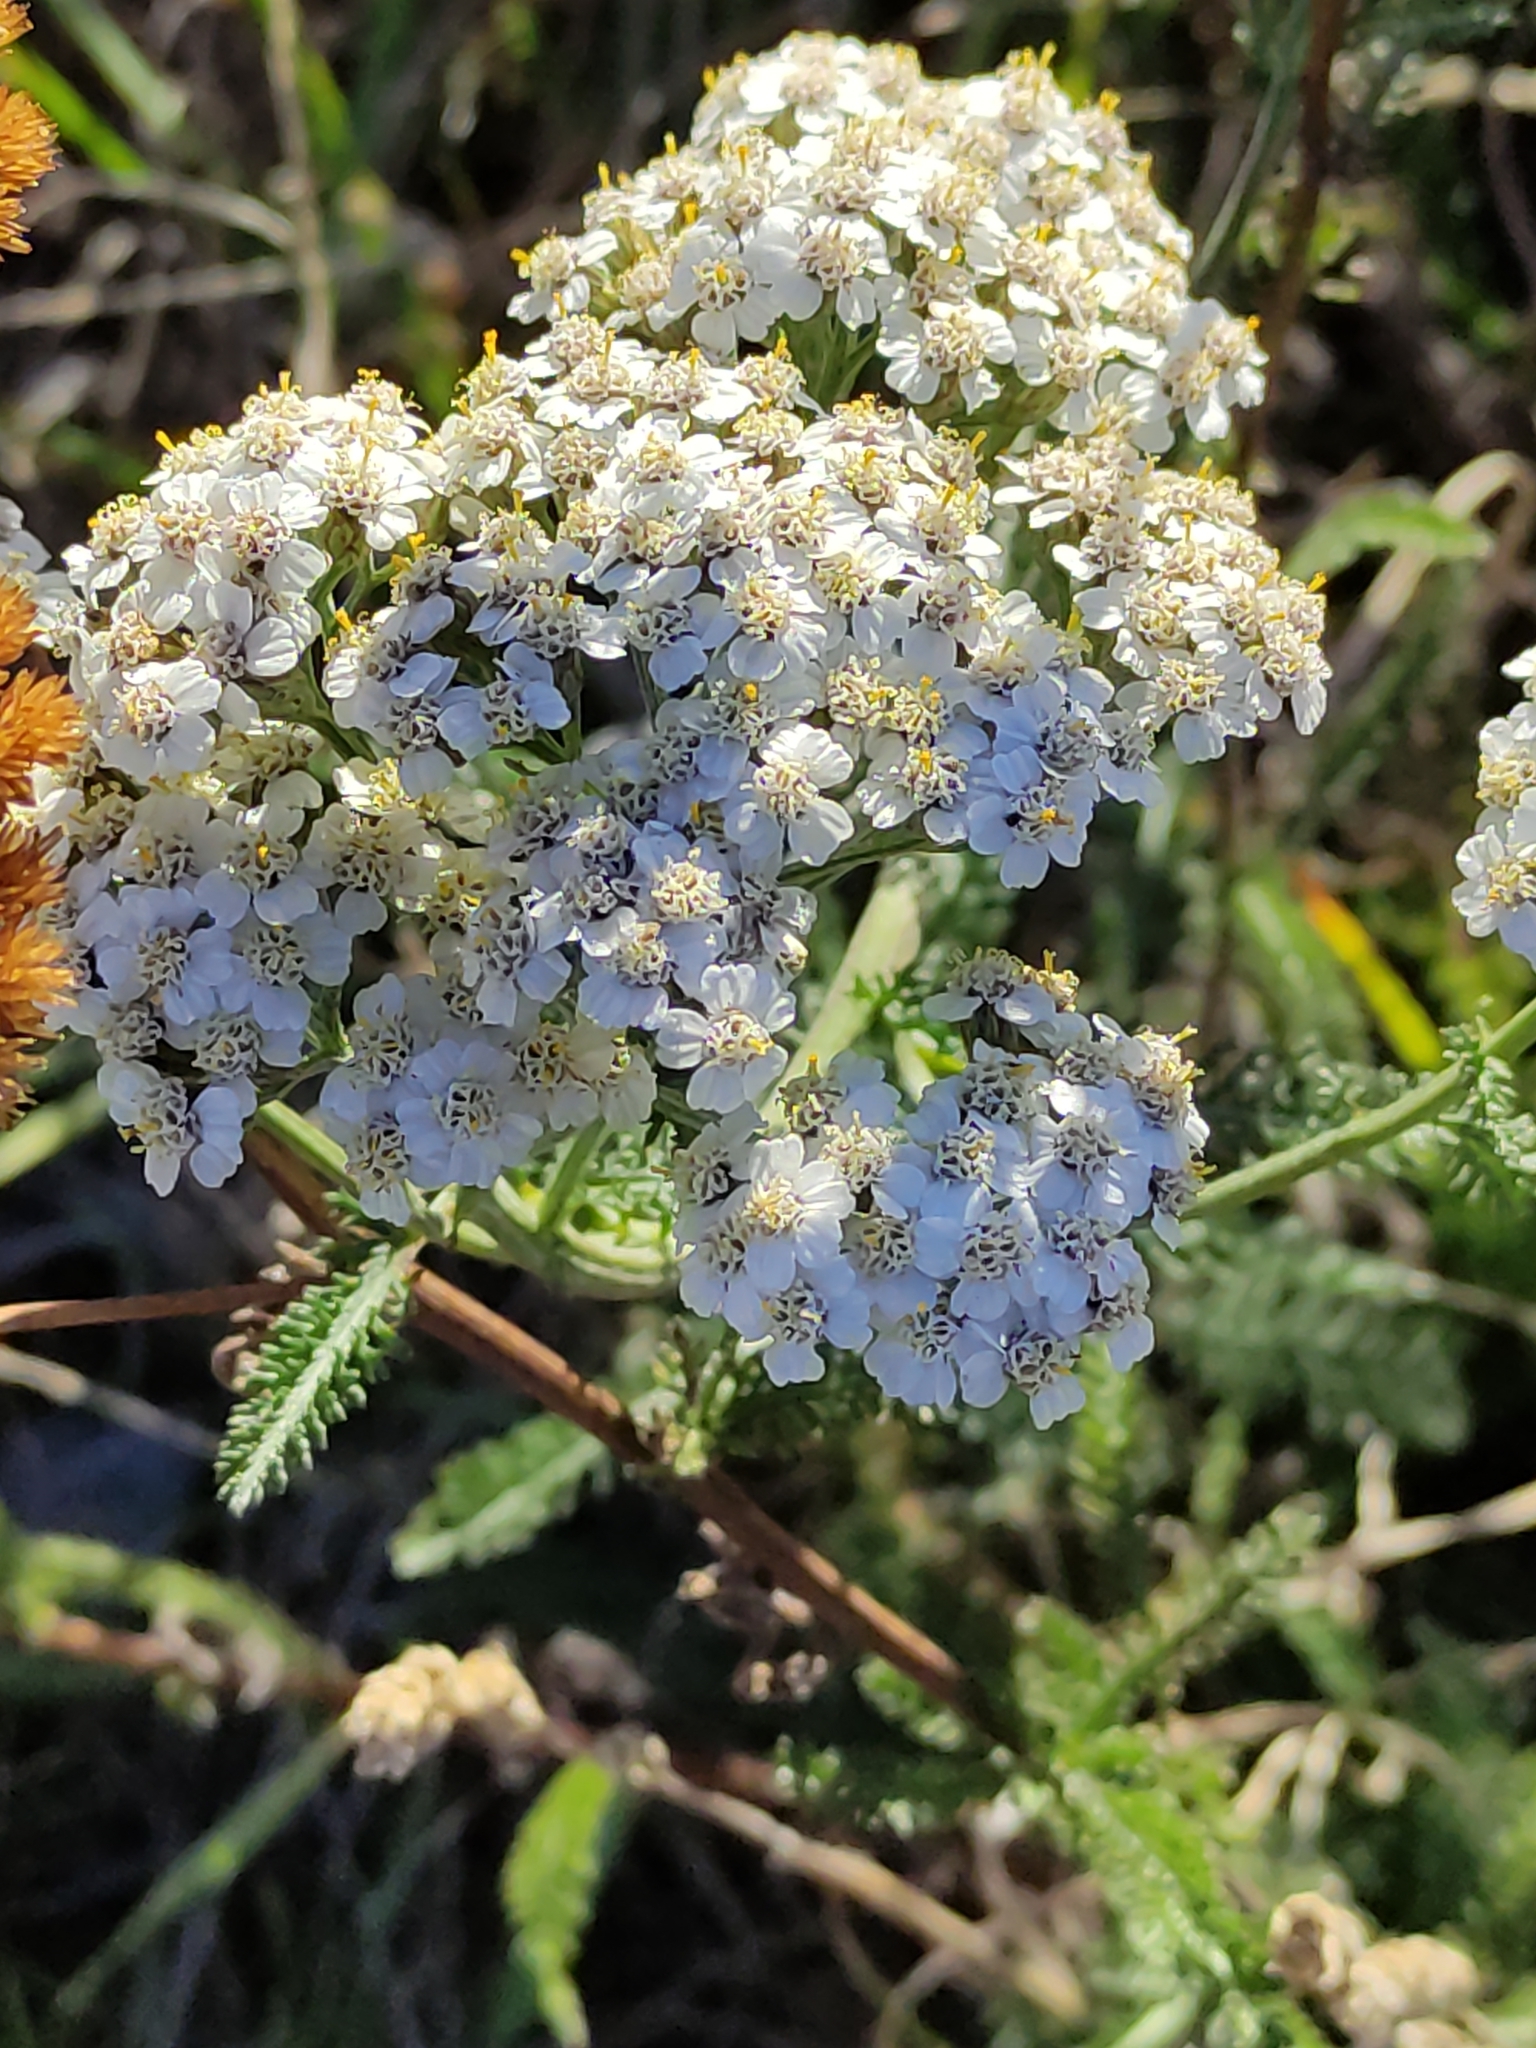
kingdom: Plantae
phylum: Tracheophyta
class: Magnoliopsida
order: Asterales
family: Asteraceae
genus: Achillea
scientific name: Achillea millefolium
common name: Yarrow
